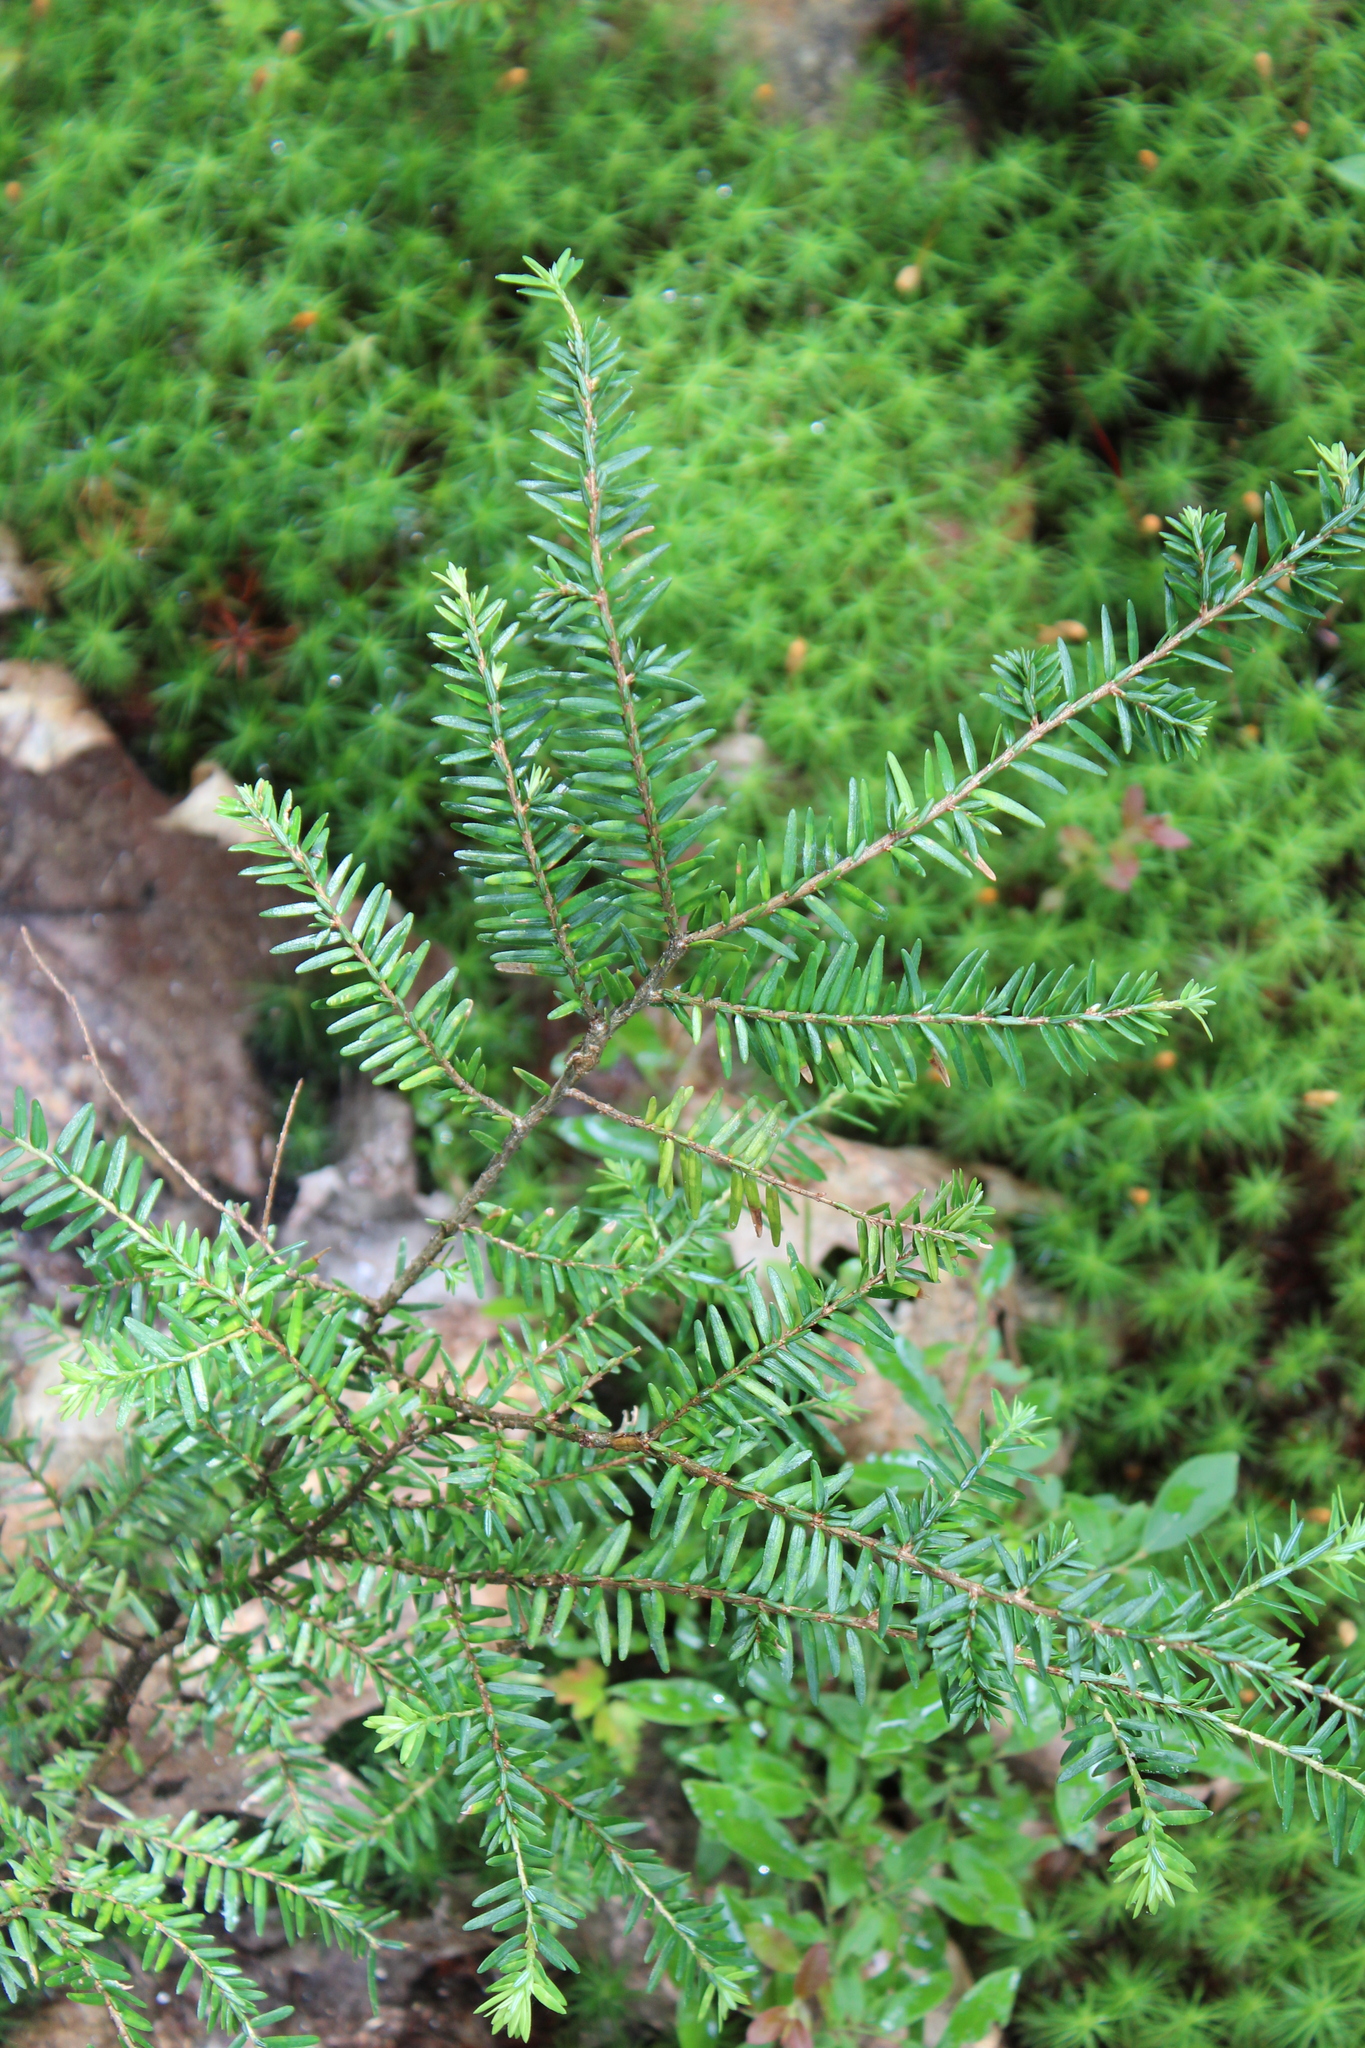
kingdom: Plantae
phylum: Tracheophyta
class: Pinopsida
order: Pinales
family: Pinaceae
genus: Tsuga
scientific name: Tsuga canadensis
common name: Eastern hemlock
